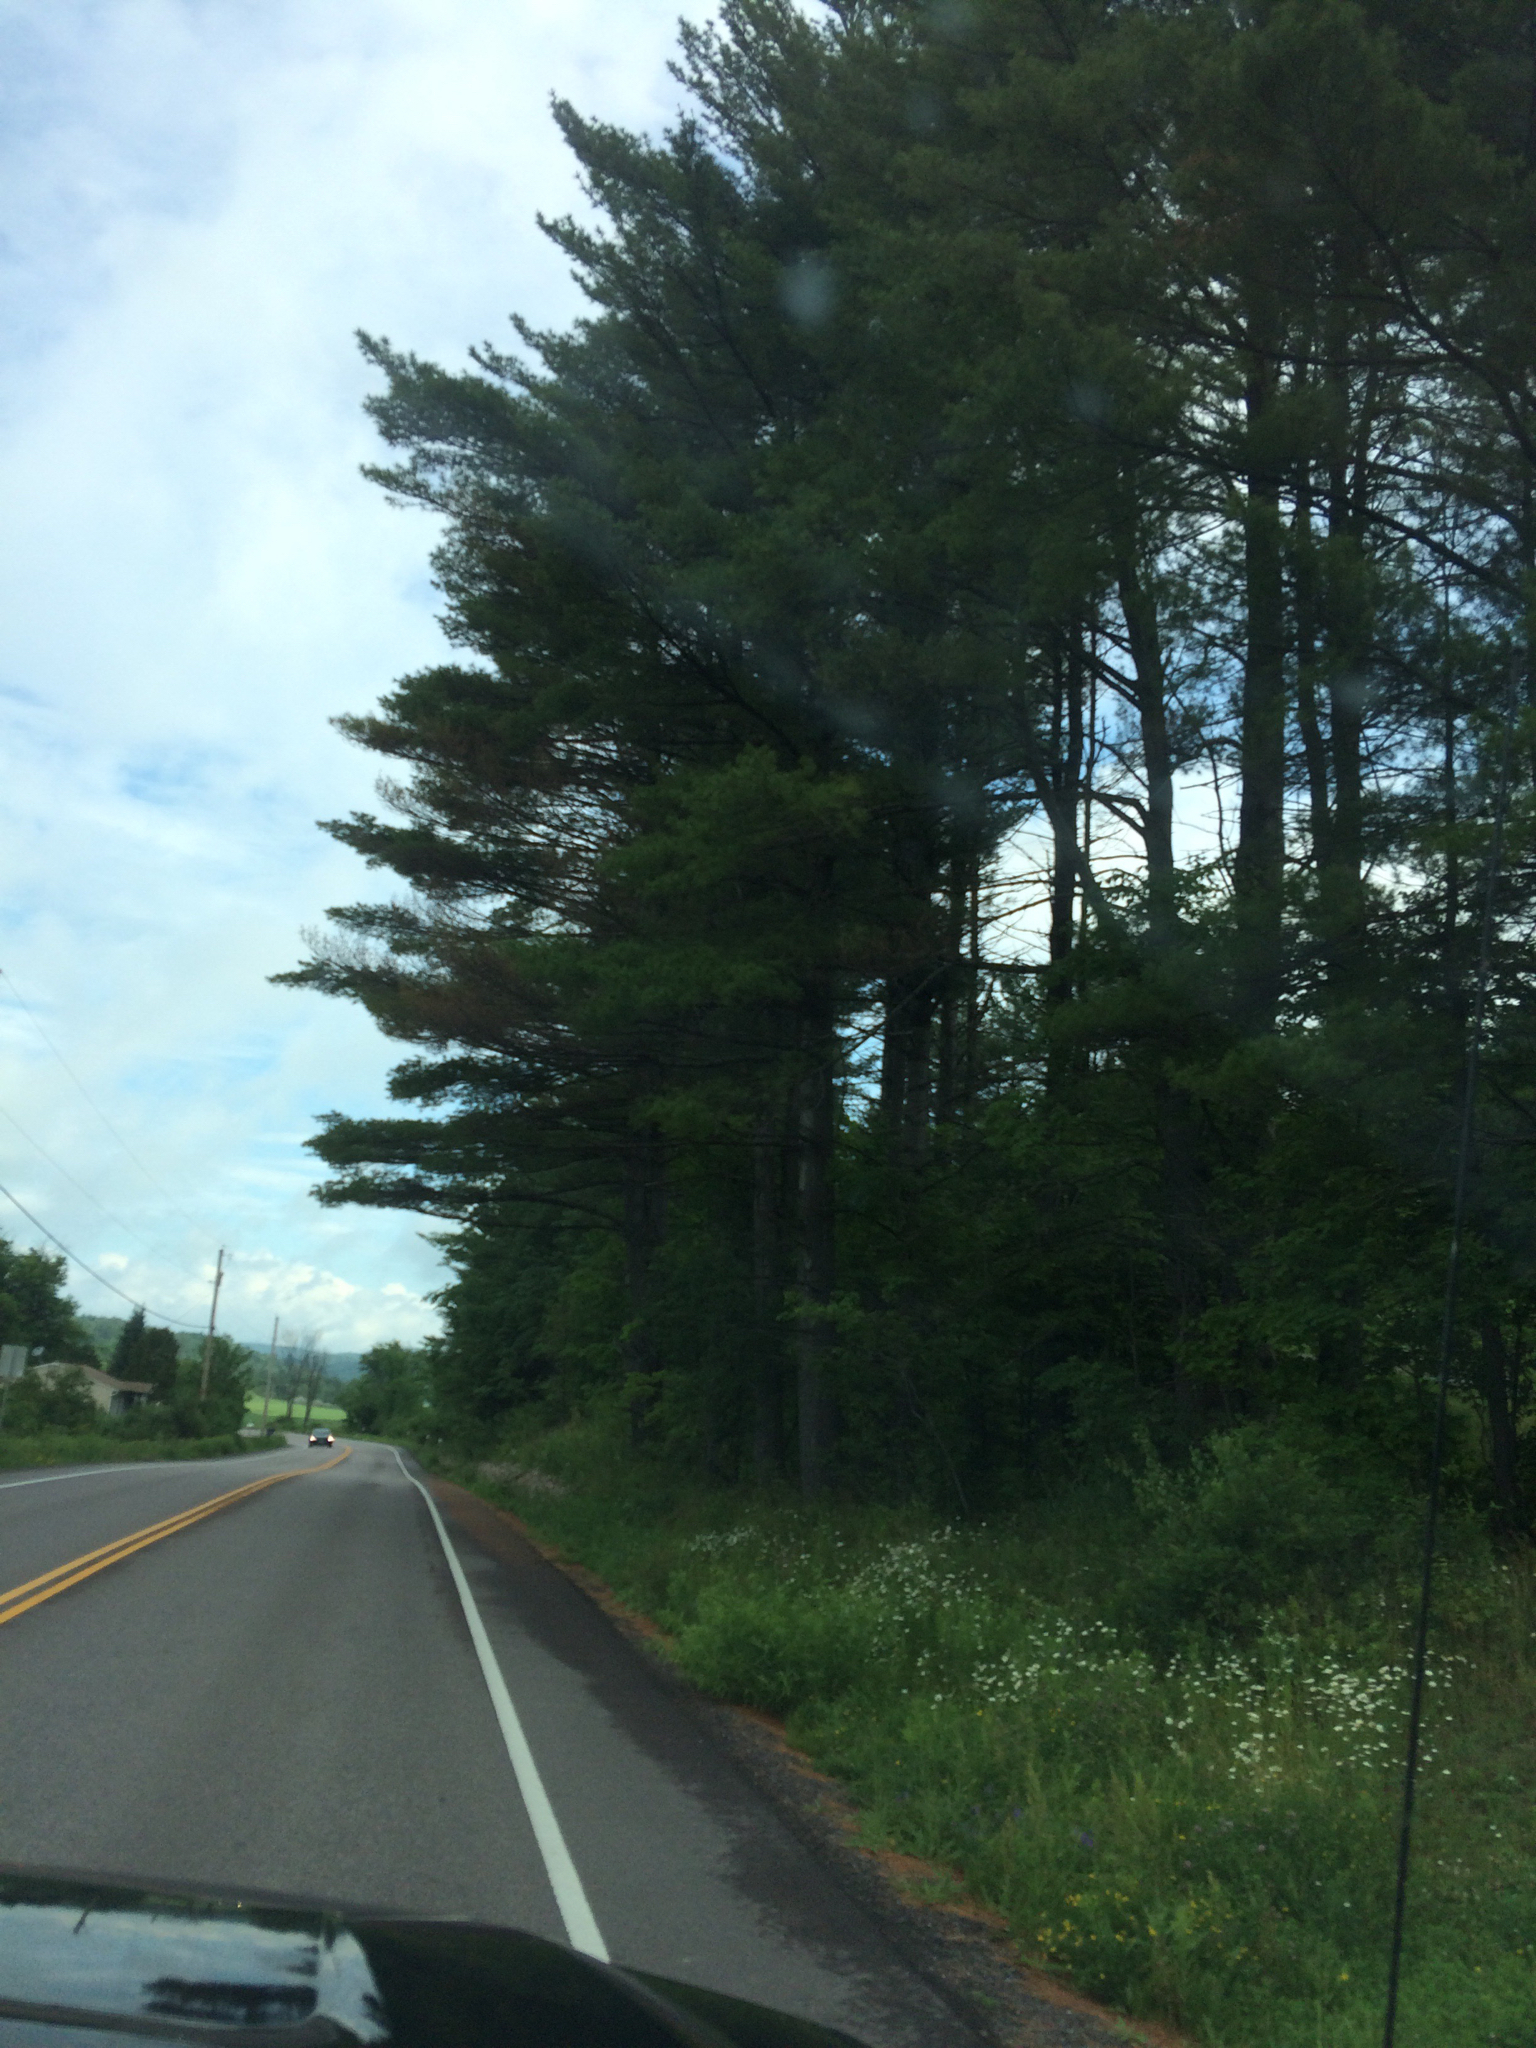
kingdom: Plantae
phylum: Tracheophyta
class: Pinopsida
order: Pinales
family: Pinaceae
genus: Pinus
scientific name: Pinus strobus
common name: Weymouth pine
